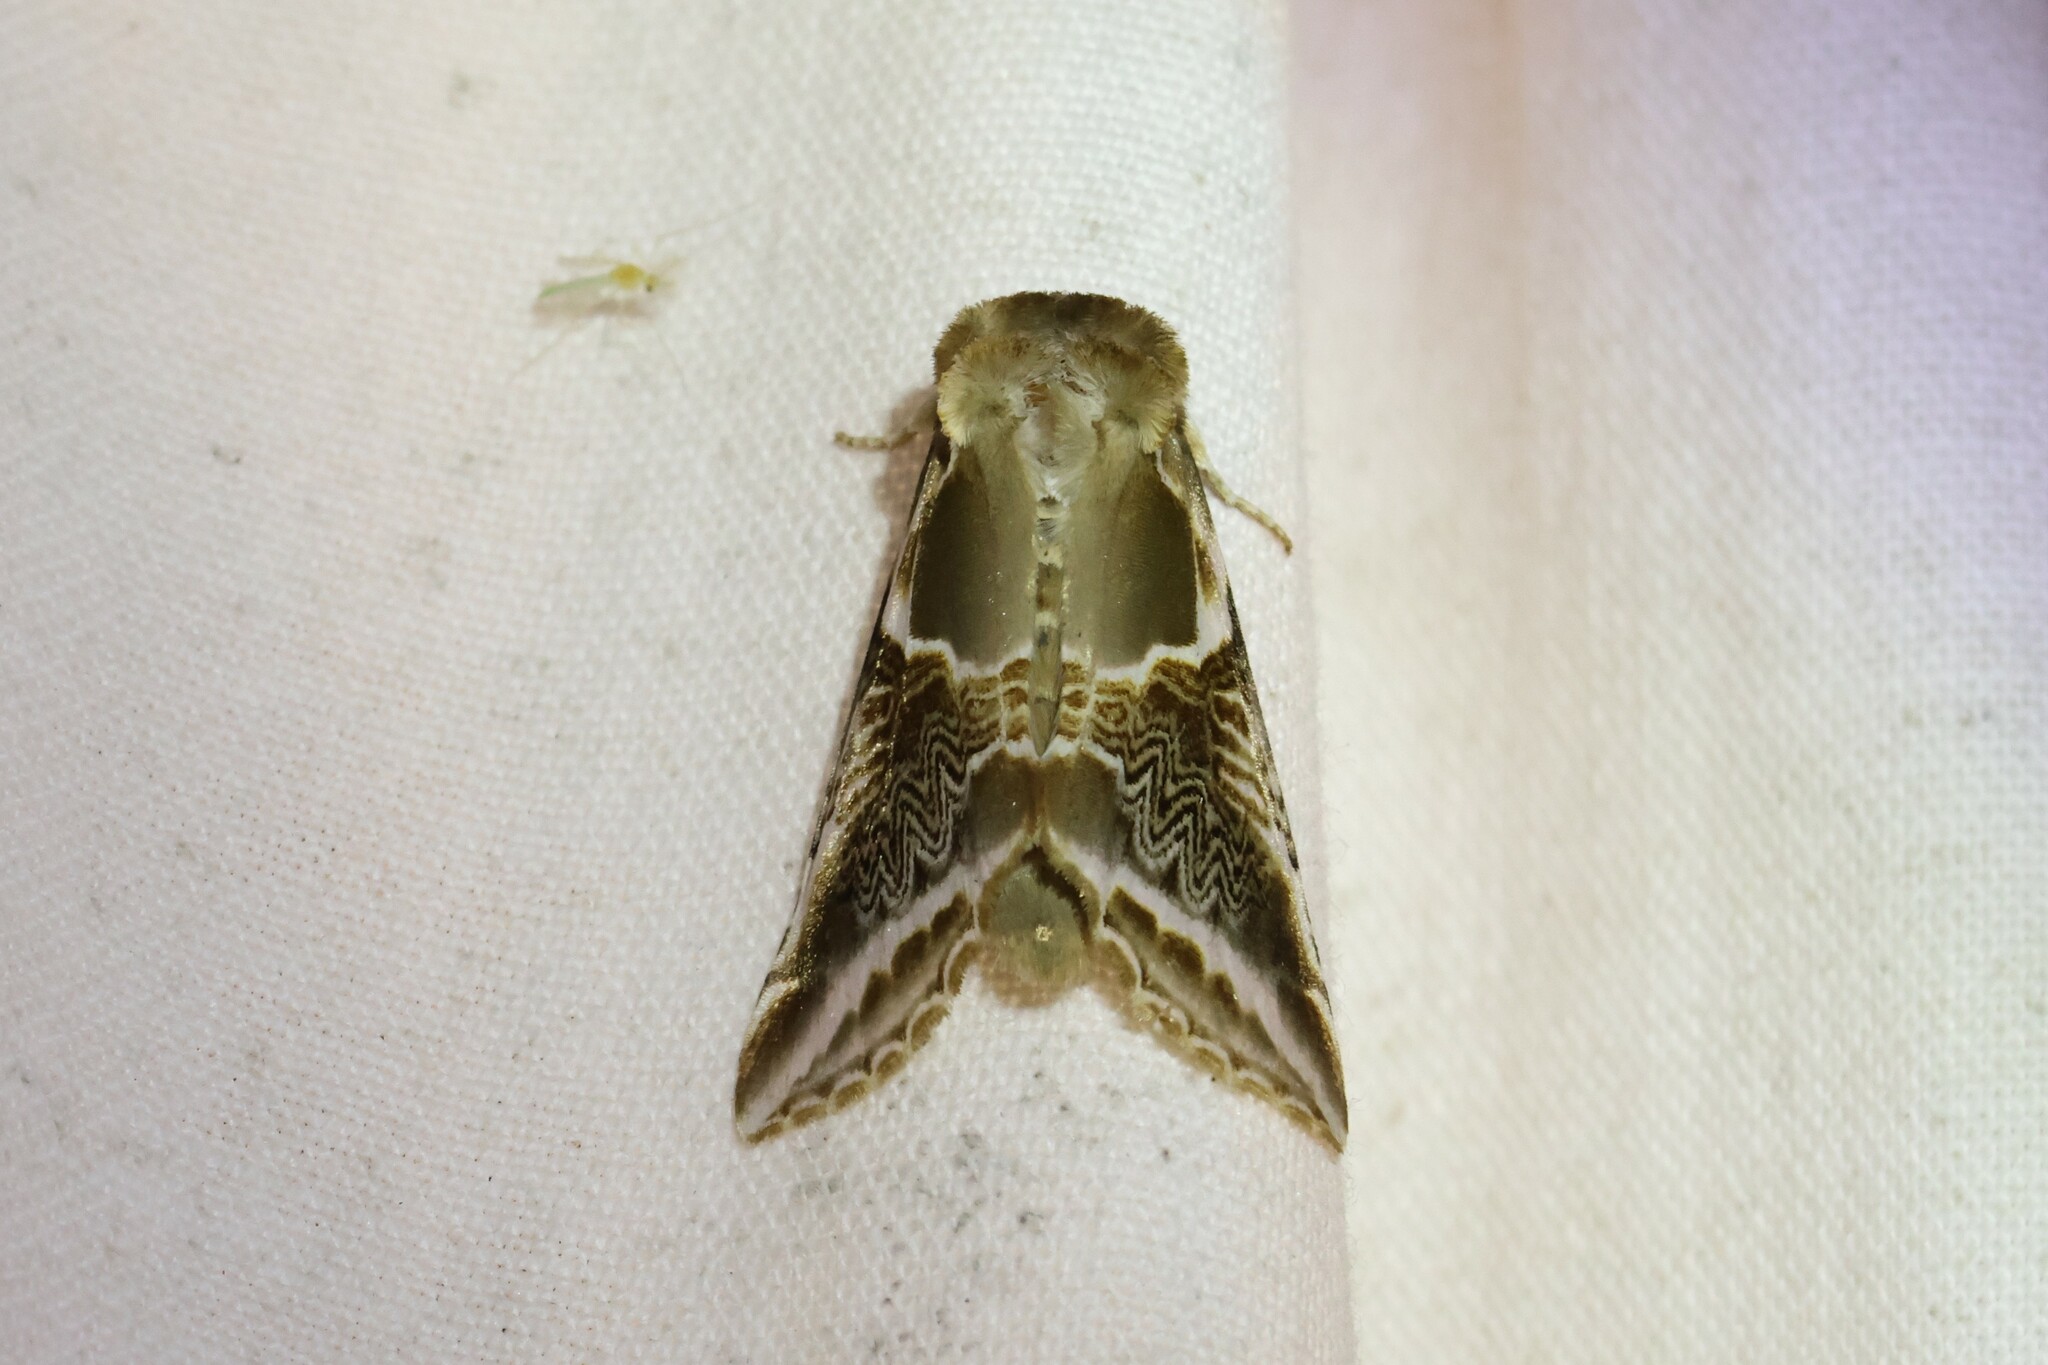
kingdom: Animalia
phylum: Arthropoda
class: Insecta
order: Lepidoptera
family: Drepanidae
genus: Habrosyne
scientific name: Habrosyne scripta
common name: Lettered habrosyne moth
